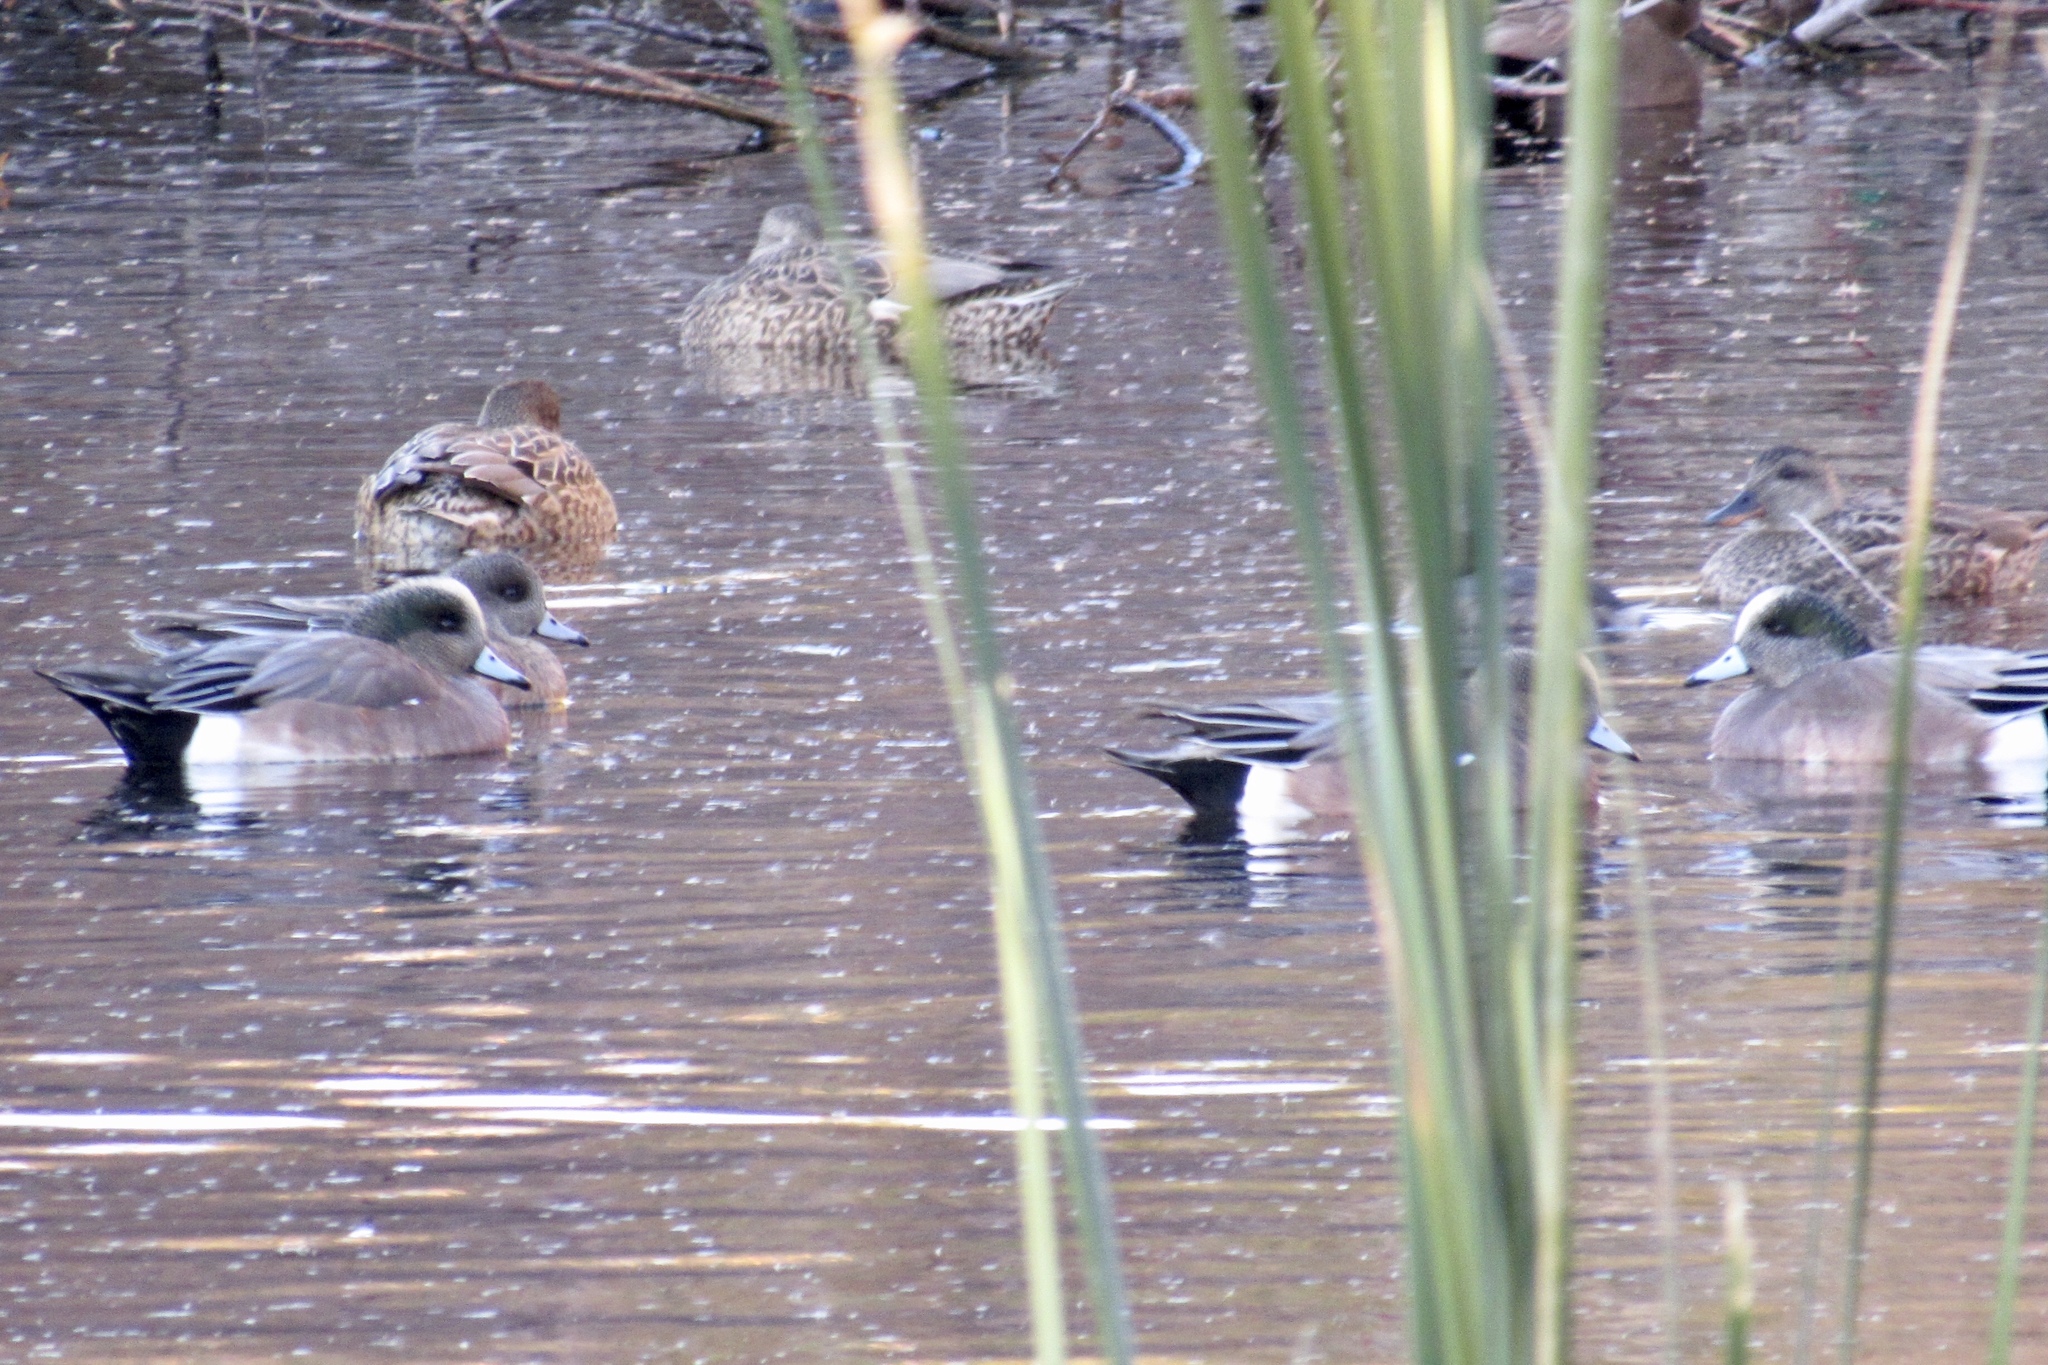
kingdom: Animalia
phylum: Chordata
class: Aves
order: Anseriformes
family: Anatidae
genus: Mareca
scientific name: Mareca americana
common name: American wigeon
